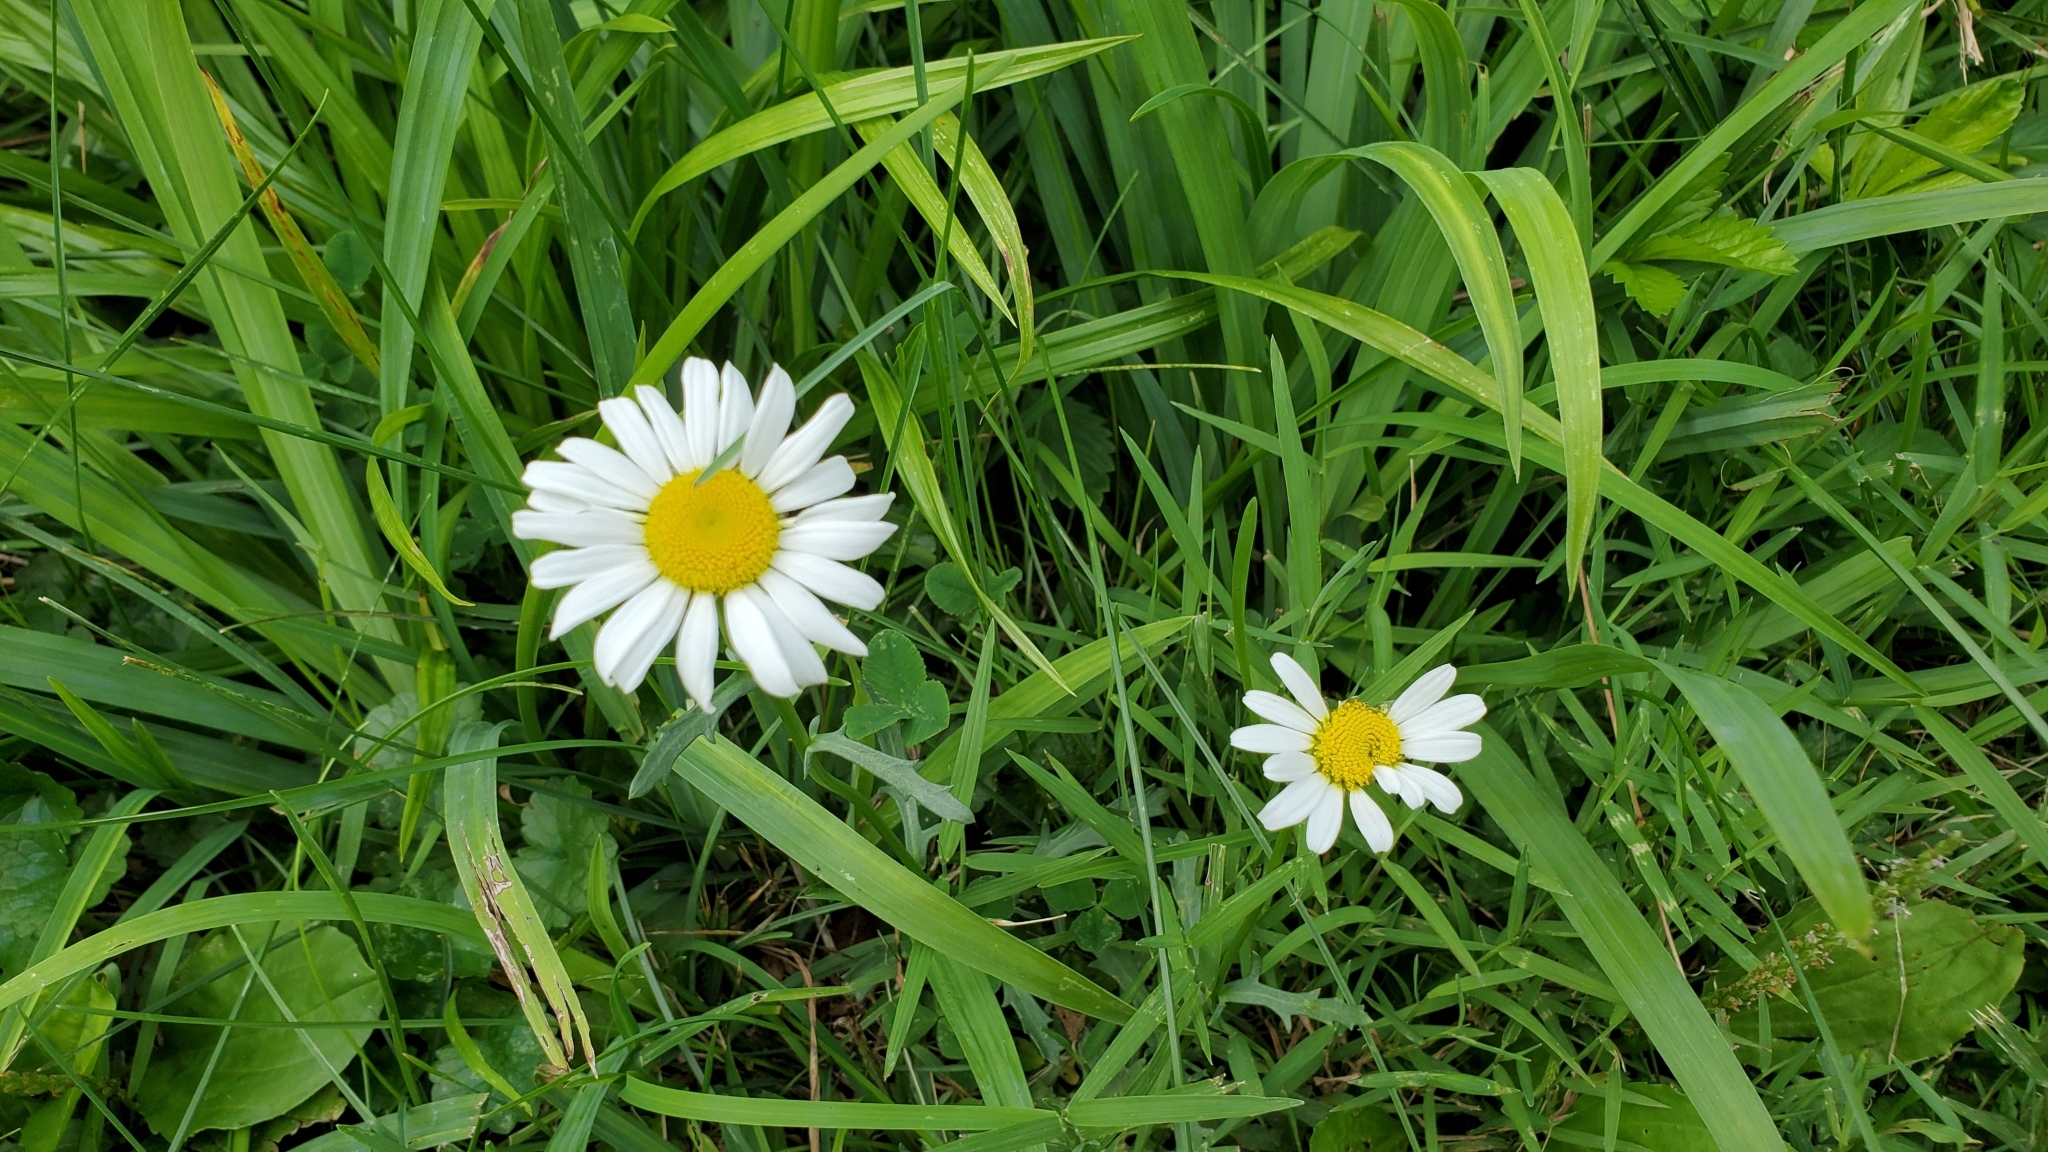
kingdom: Plantae
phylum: Tracheophyta
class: Magnoliopsida
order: Asterales
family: Asteraceae
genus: Leucanthemum
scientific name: Leucanthemum vulgare
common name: Oxeye daisy
